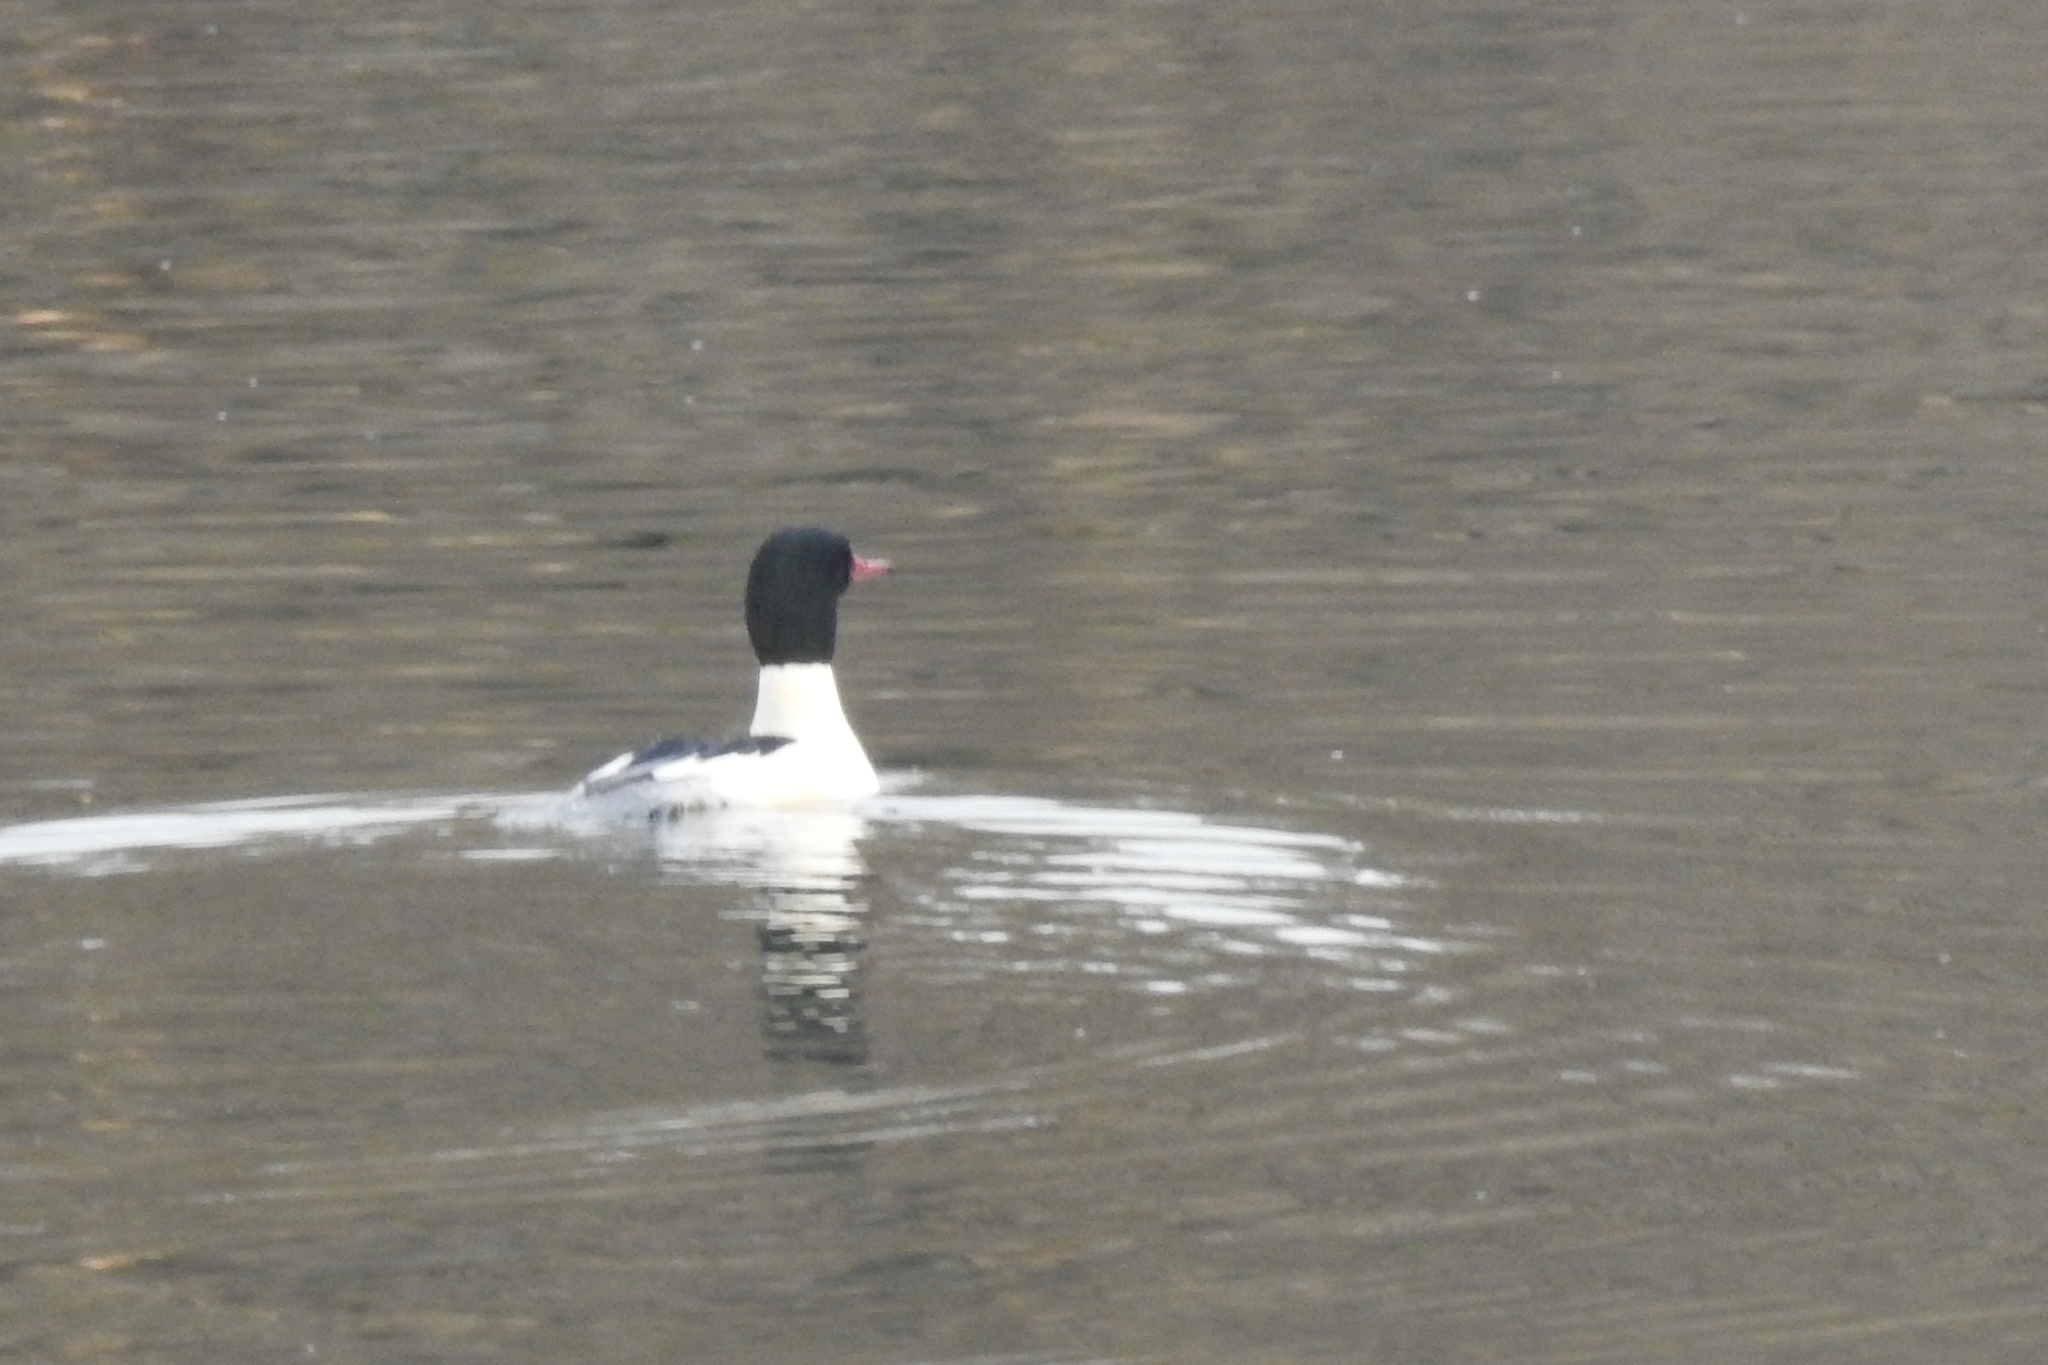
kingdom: Animalia
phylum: Chordata
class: Aves
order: Anseriformes
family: Anatidae
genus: Mergus
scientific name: Mergus merganser
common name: Common merganser
